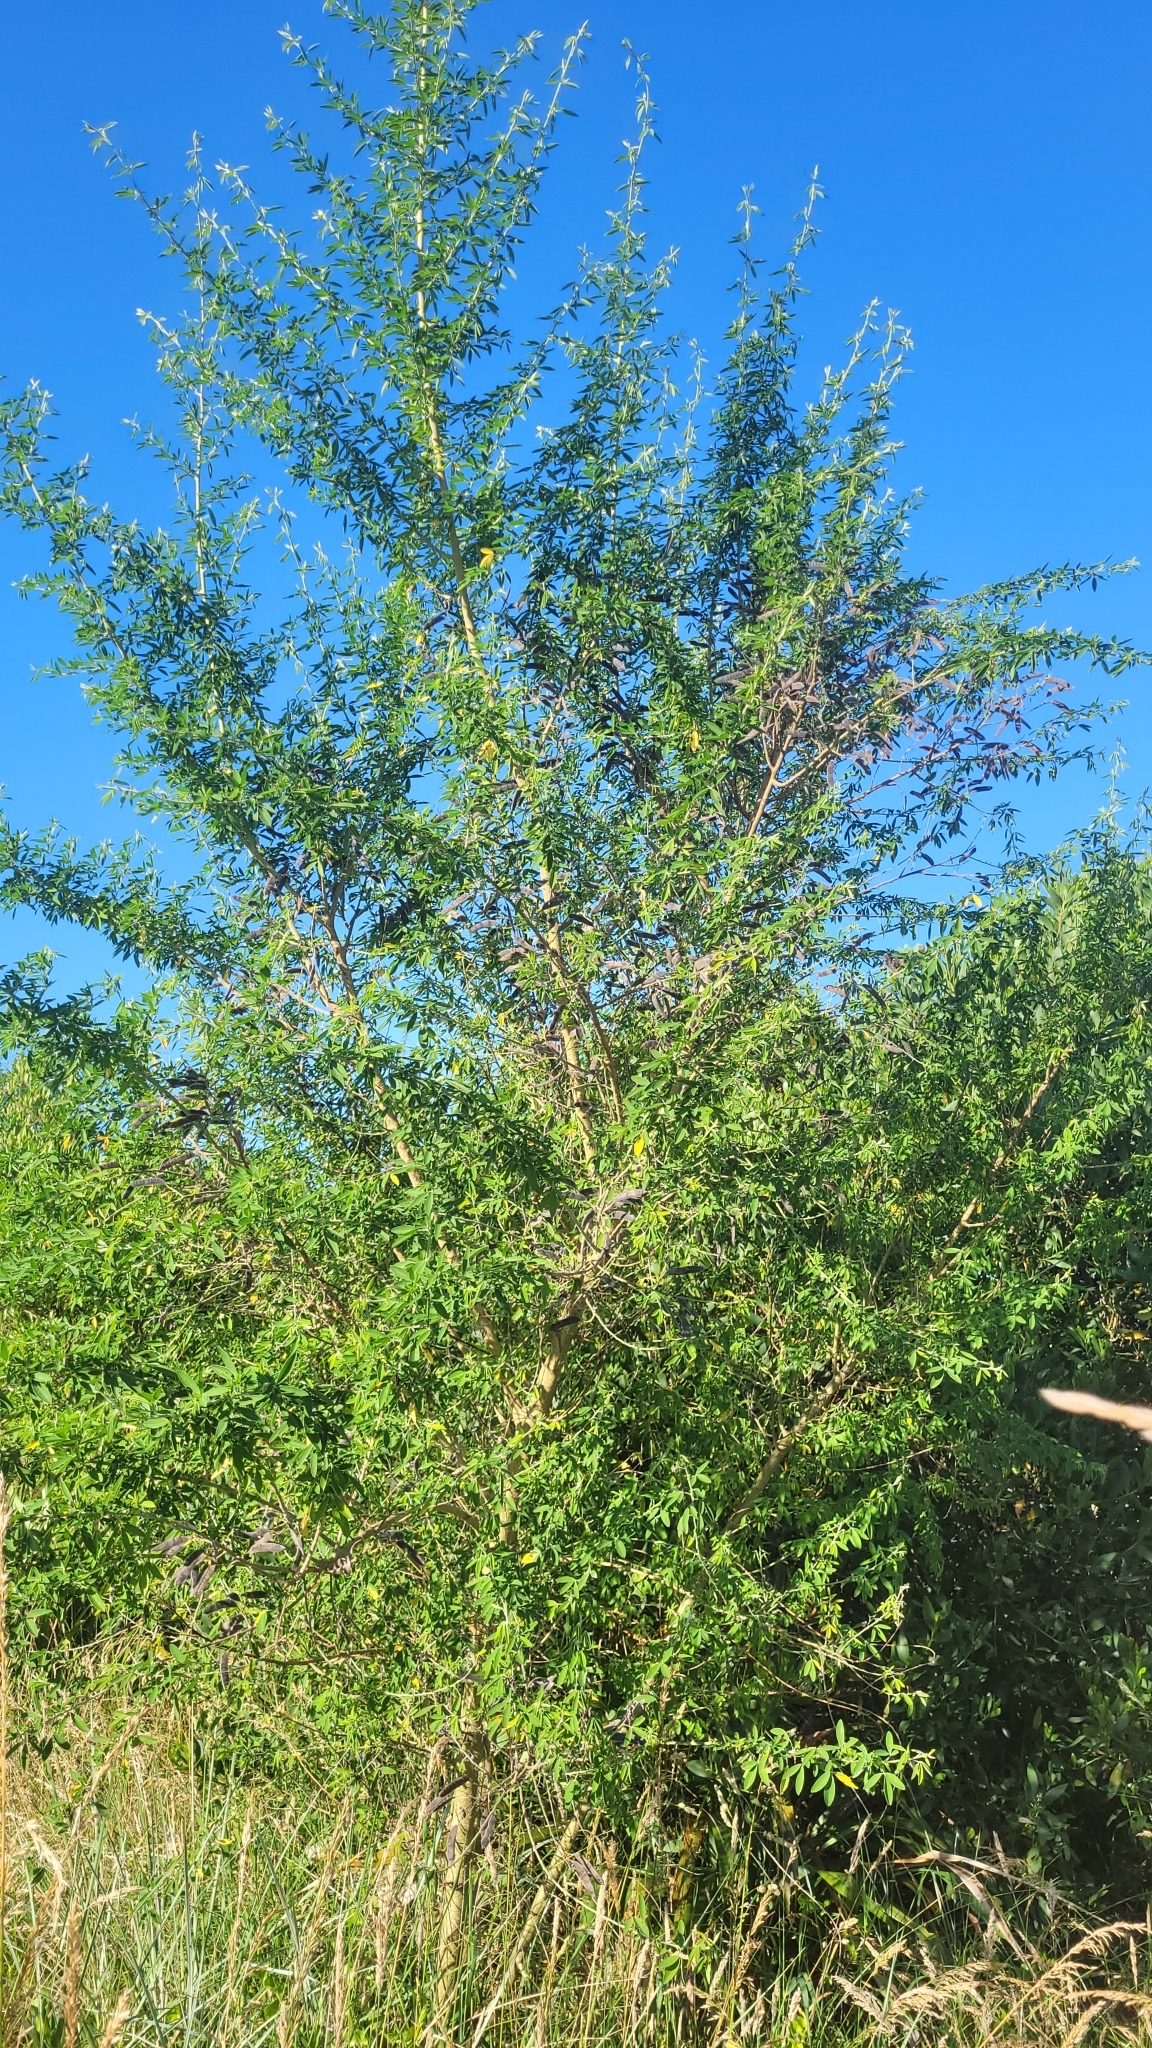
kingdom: Plantae
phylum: Tracheophyta
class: Magnoliopsida
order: Fabales
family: Fabaceae
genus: Chamaecytisus
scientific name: Chamaecytisus prolifer
